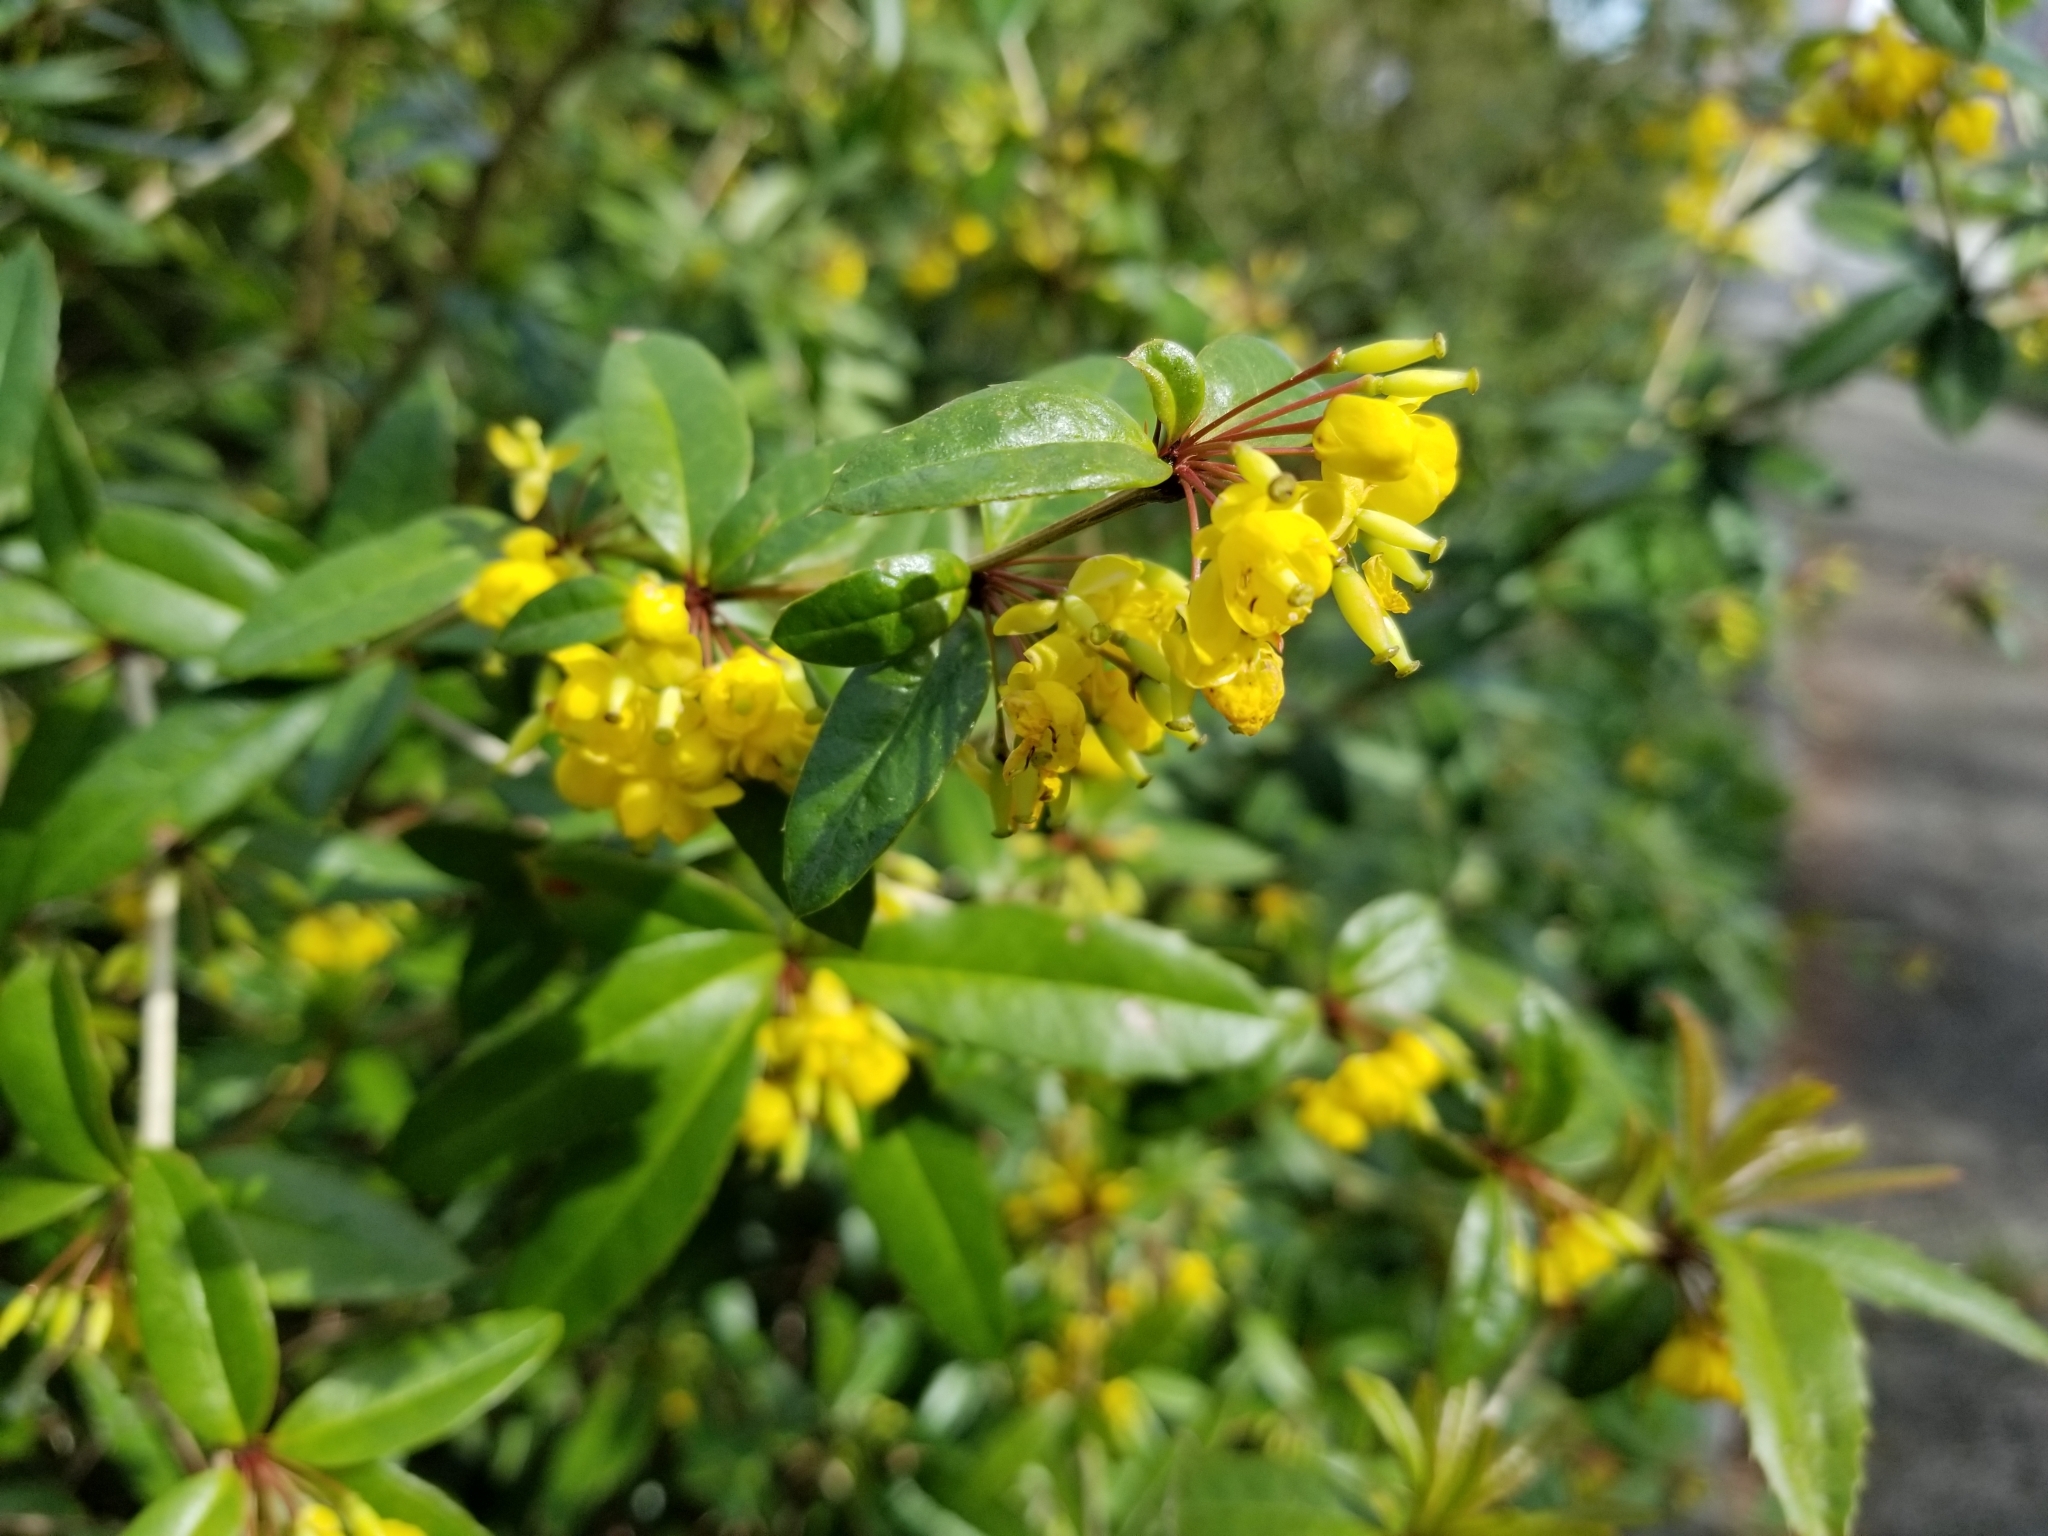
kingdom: Plantae
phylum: Tracheophyta
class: Magnoliopsida
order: Ranunculales
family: Berberidaceae
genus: Berberis
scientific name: Berberis julianae
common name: Wintergreen barberry
